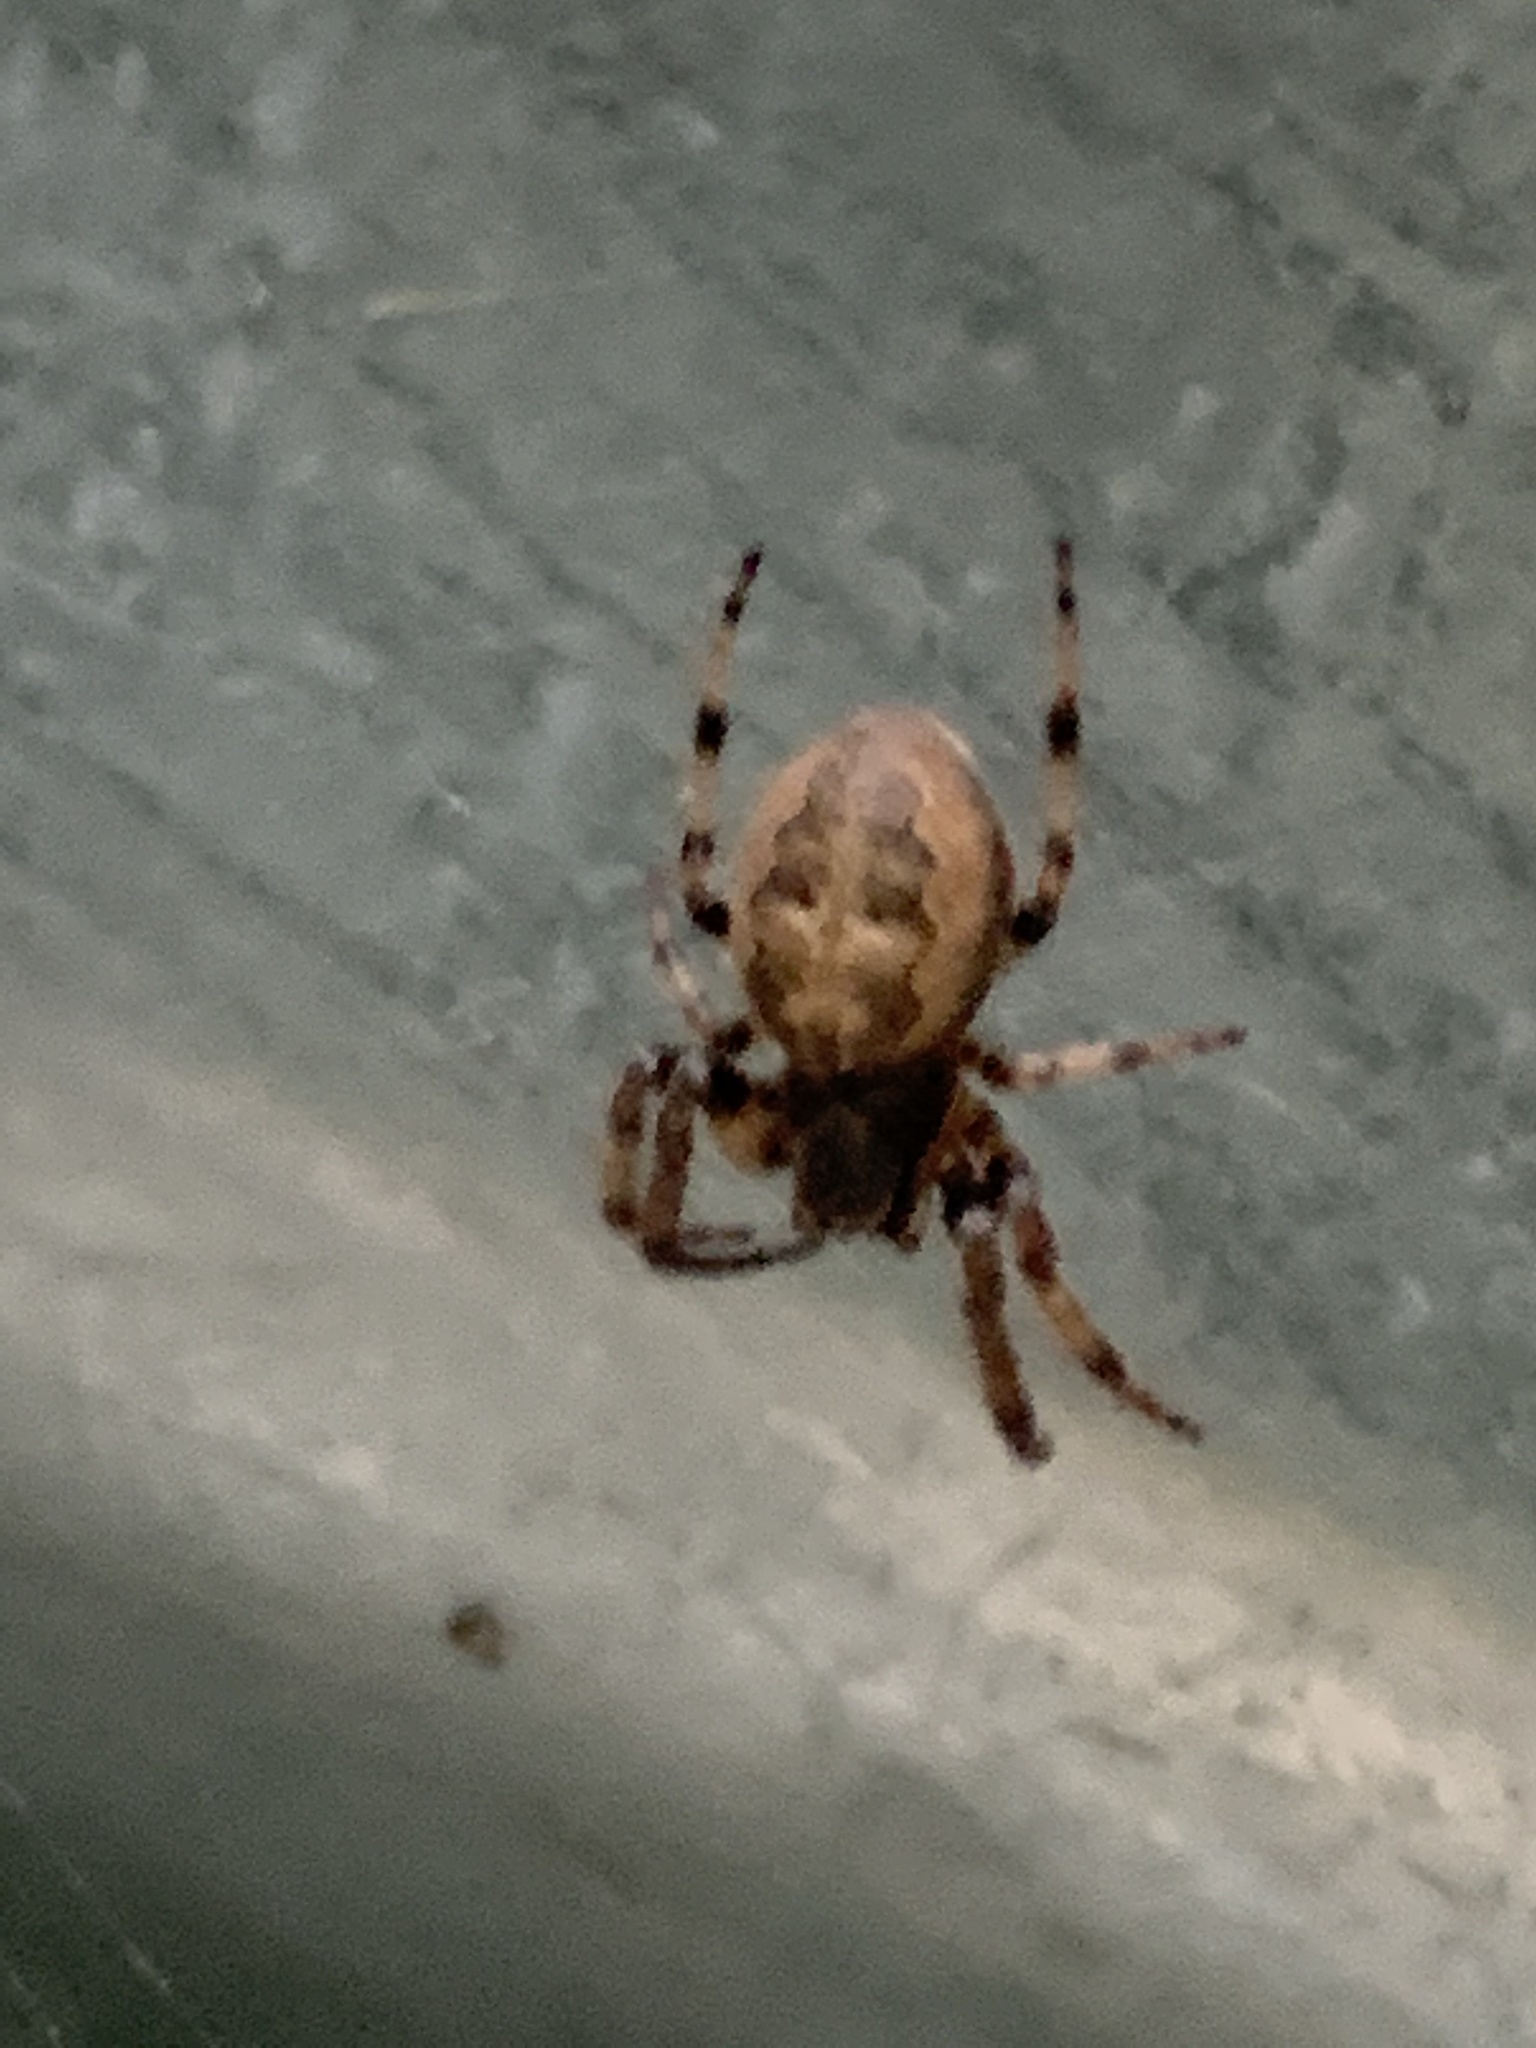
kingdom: Animalia
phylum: Arthropoda
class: Arachnida
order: Araneae
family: Araneidae
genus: Larinioides
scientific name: Larinioides cornutus
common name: Furrow orbweaver
